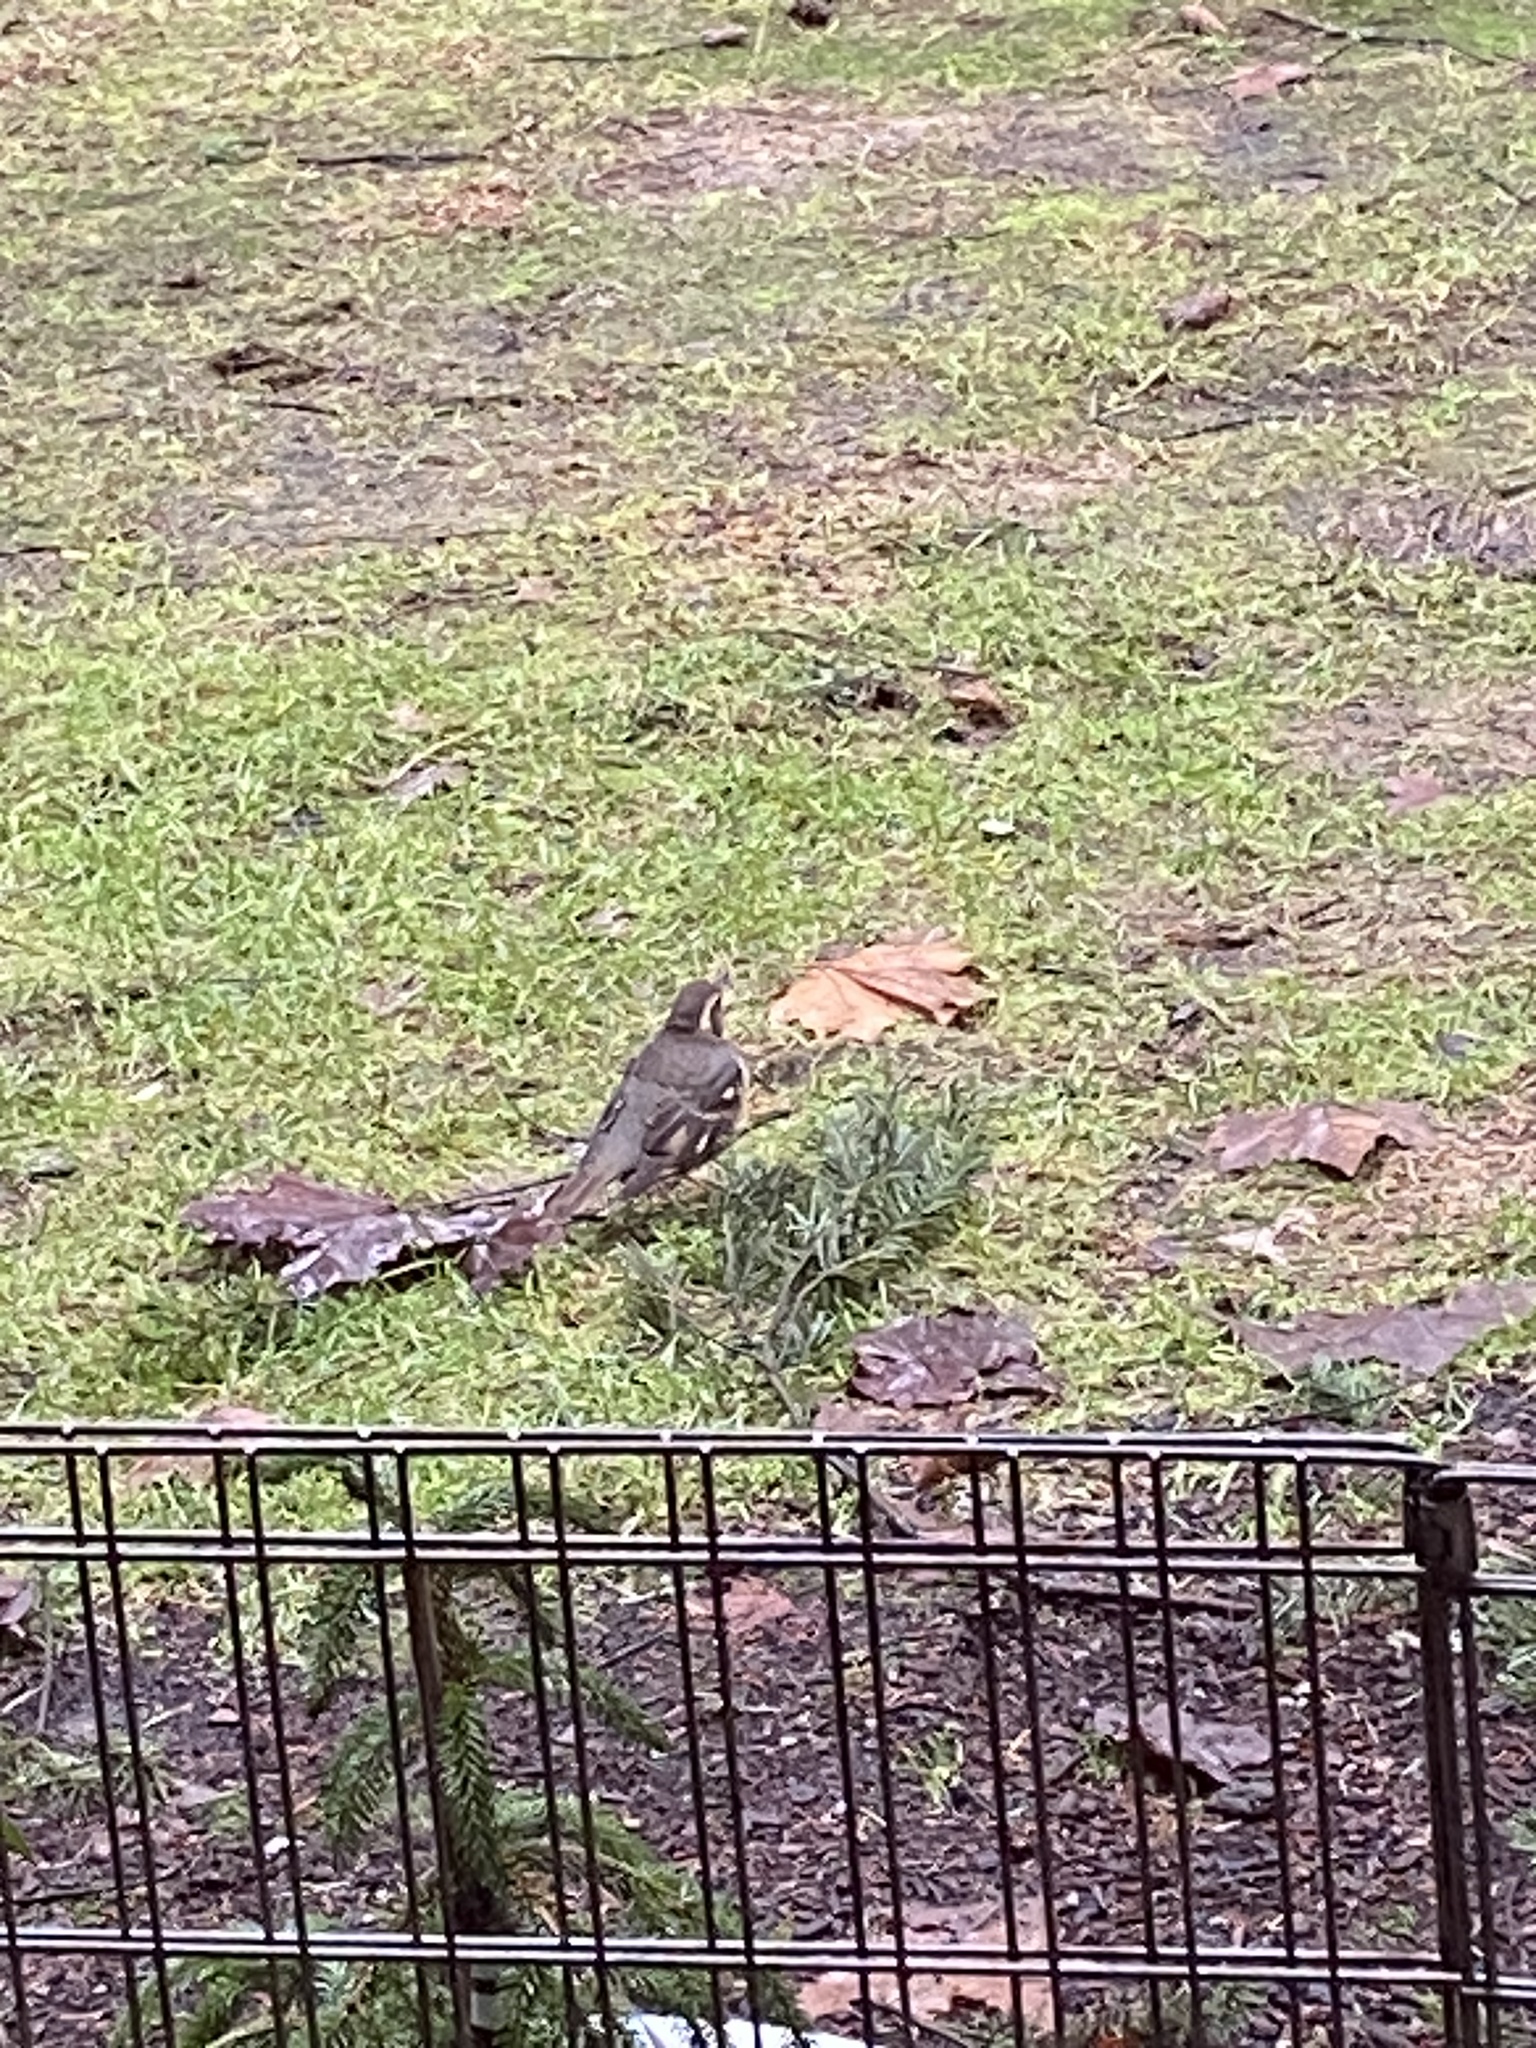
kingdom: Animalia
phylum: Chordata
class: Aves
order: Passeriformes
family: Turdidae
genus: Ixoreus
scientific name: Ixoreus naevius
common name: Varied thrush
